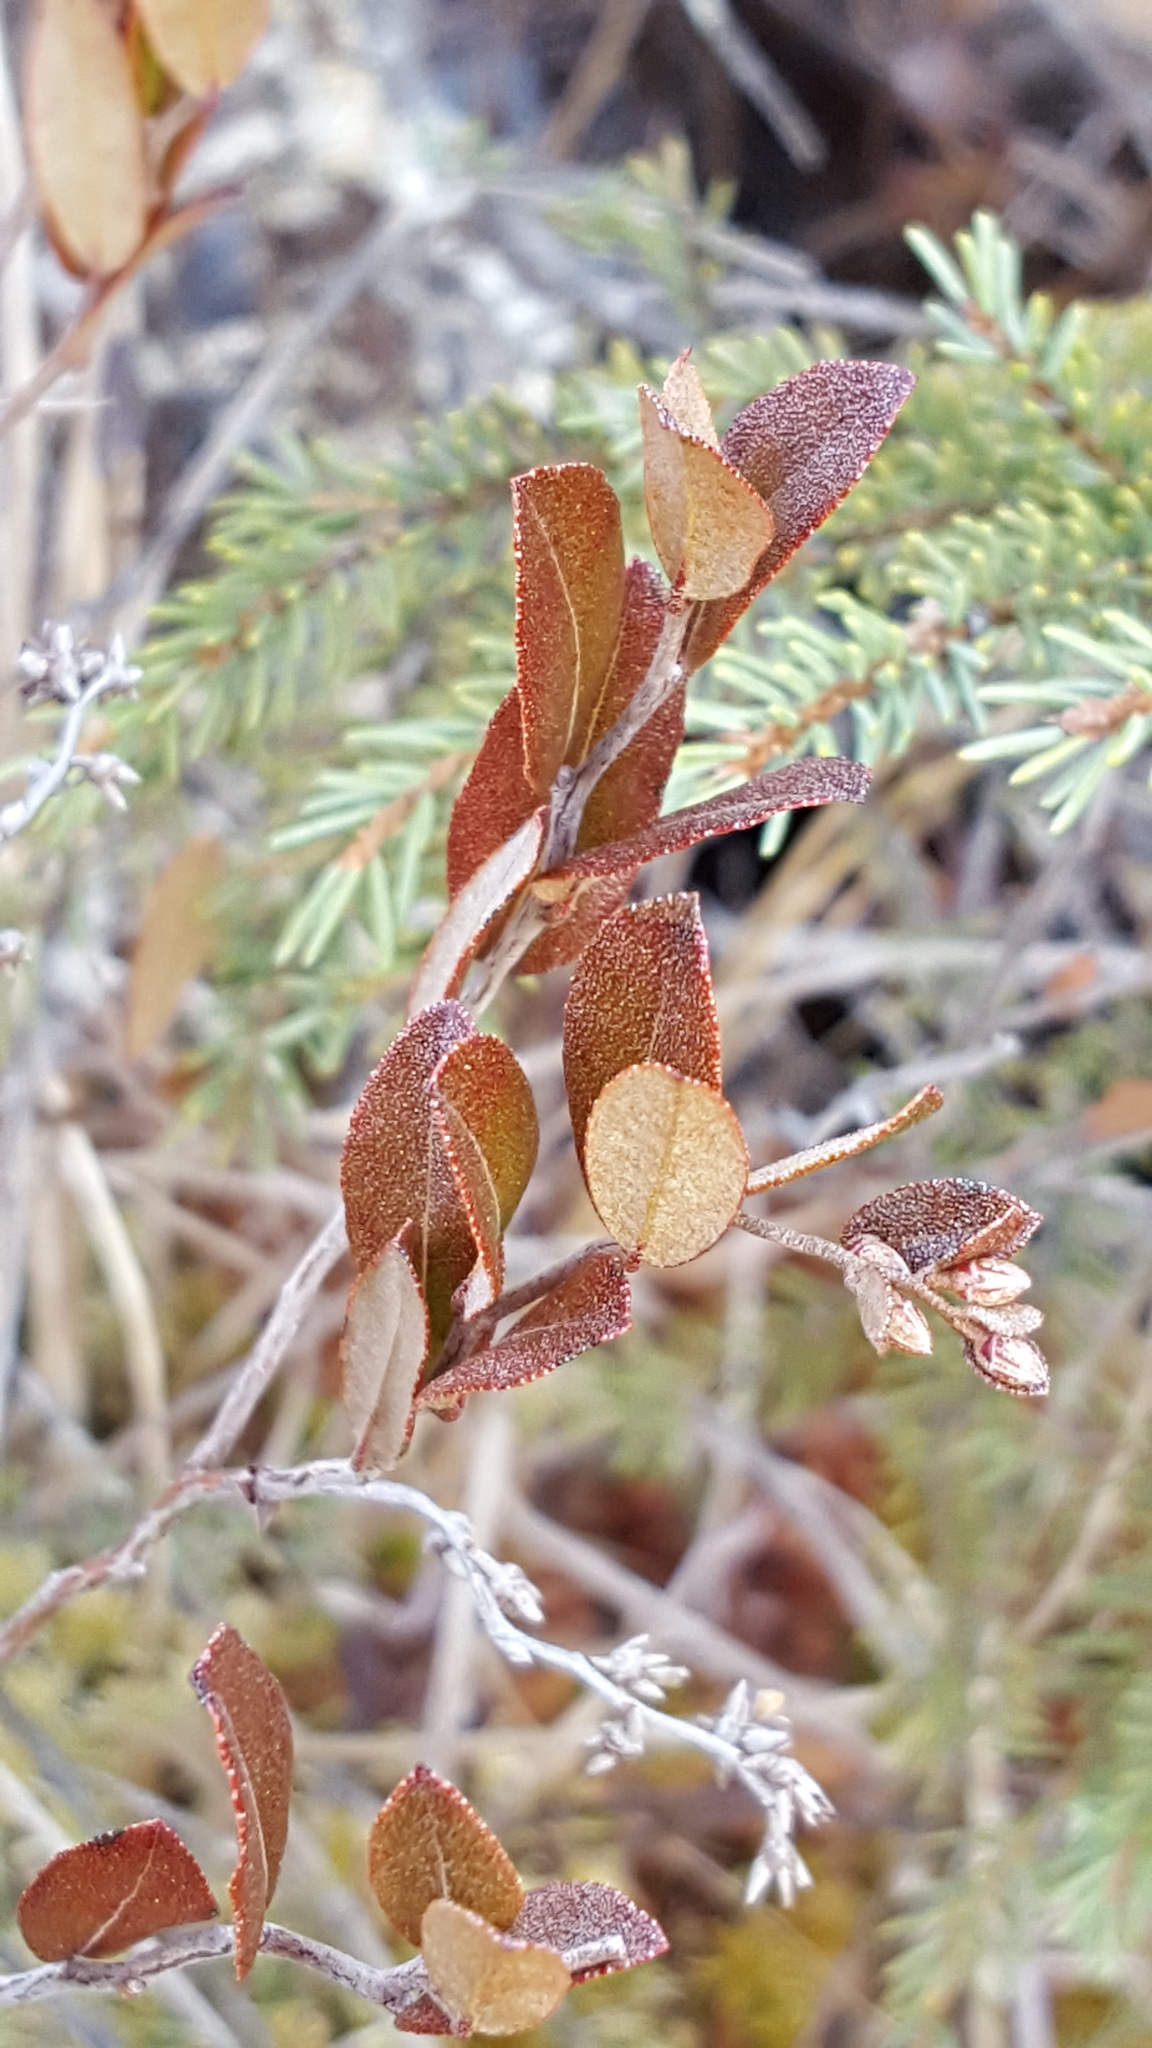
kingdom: Plantae
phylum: Tracheophyta
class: Magnoliopsida
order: Ericales
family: Ericaceae
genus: Chamaedaphne
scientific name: Chamaedaphne calyculata
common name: Leatherleaf
